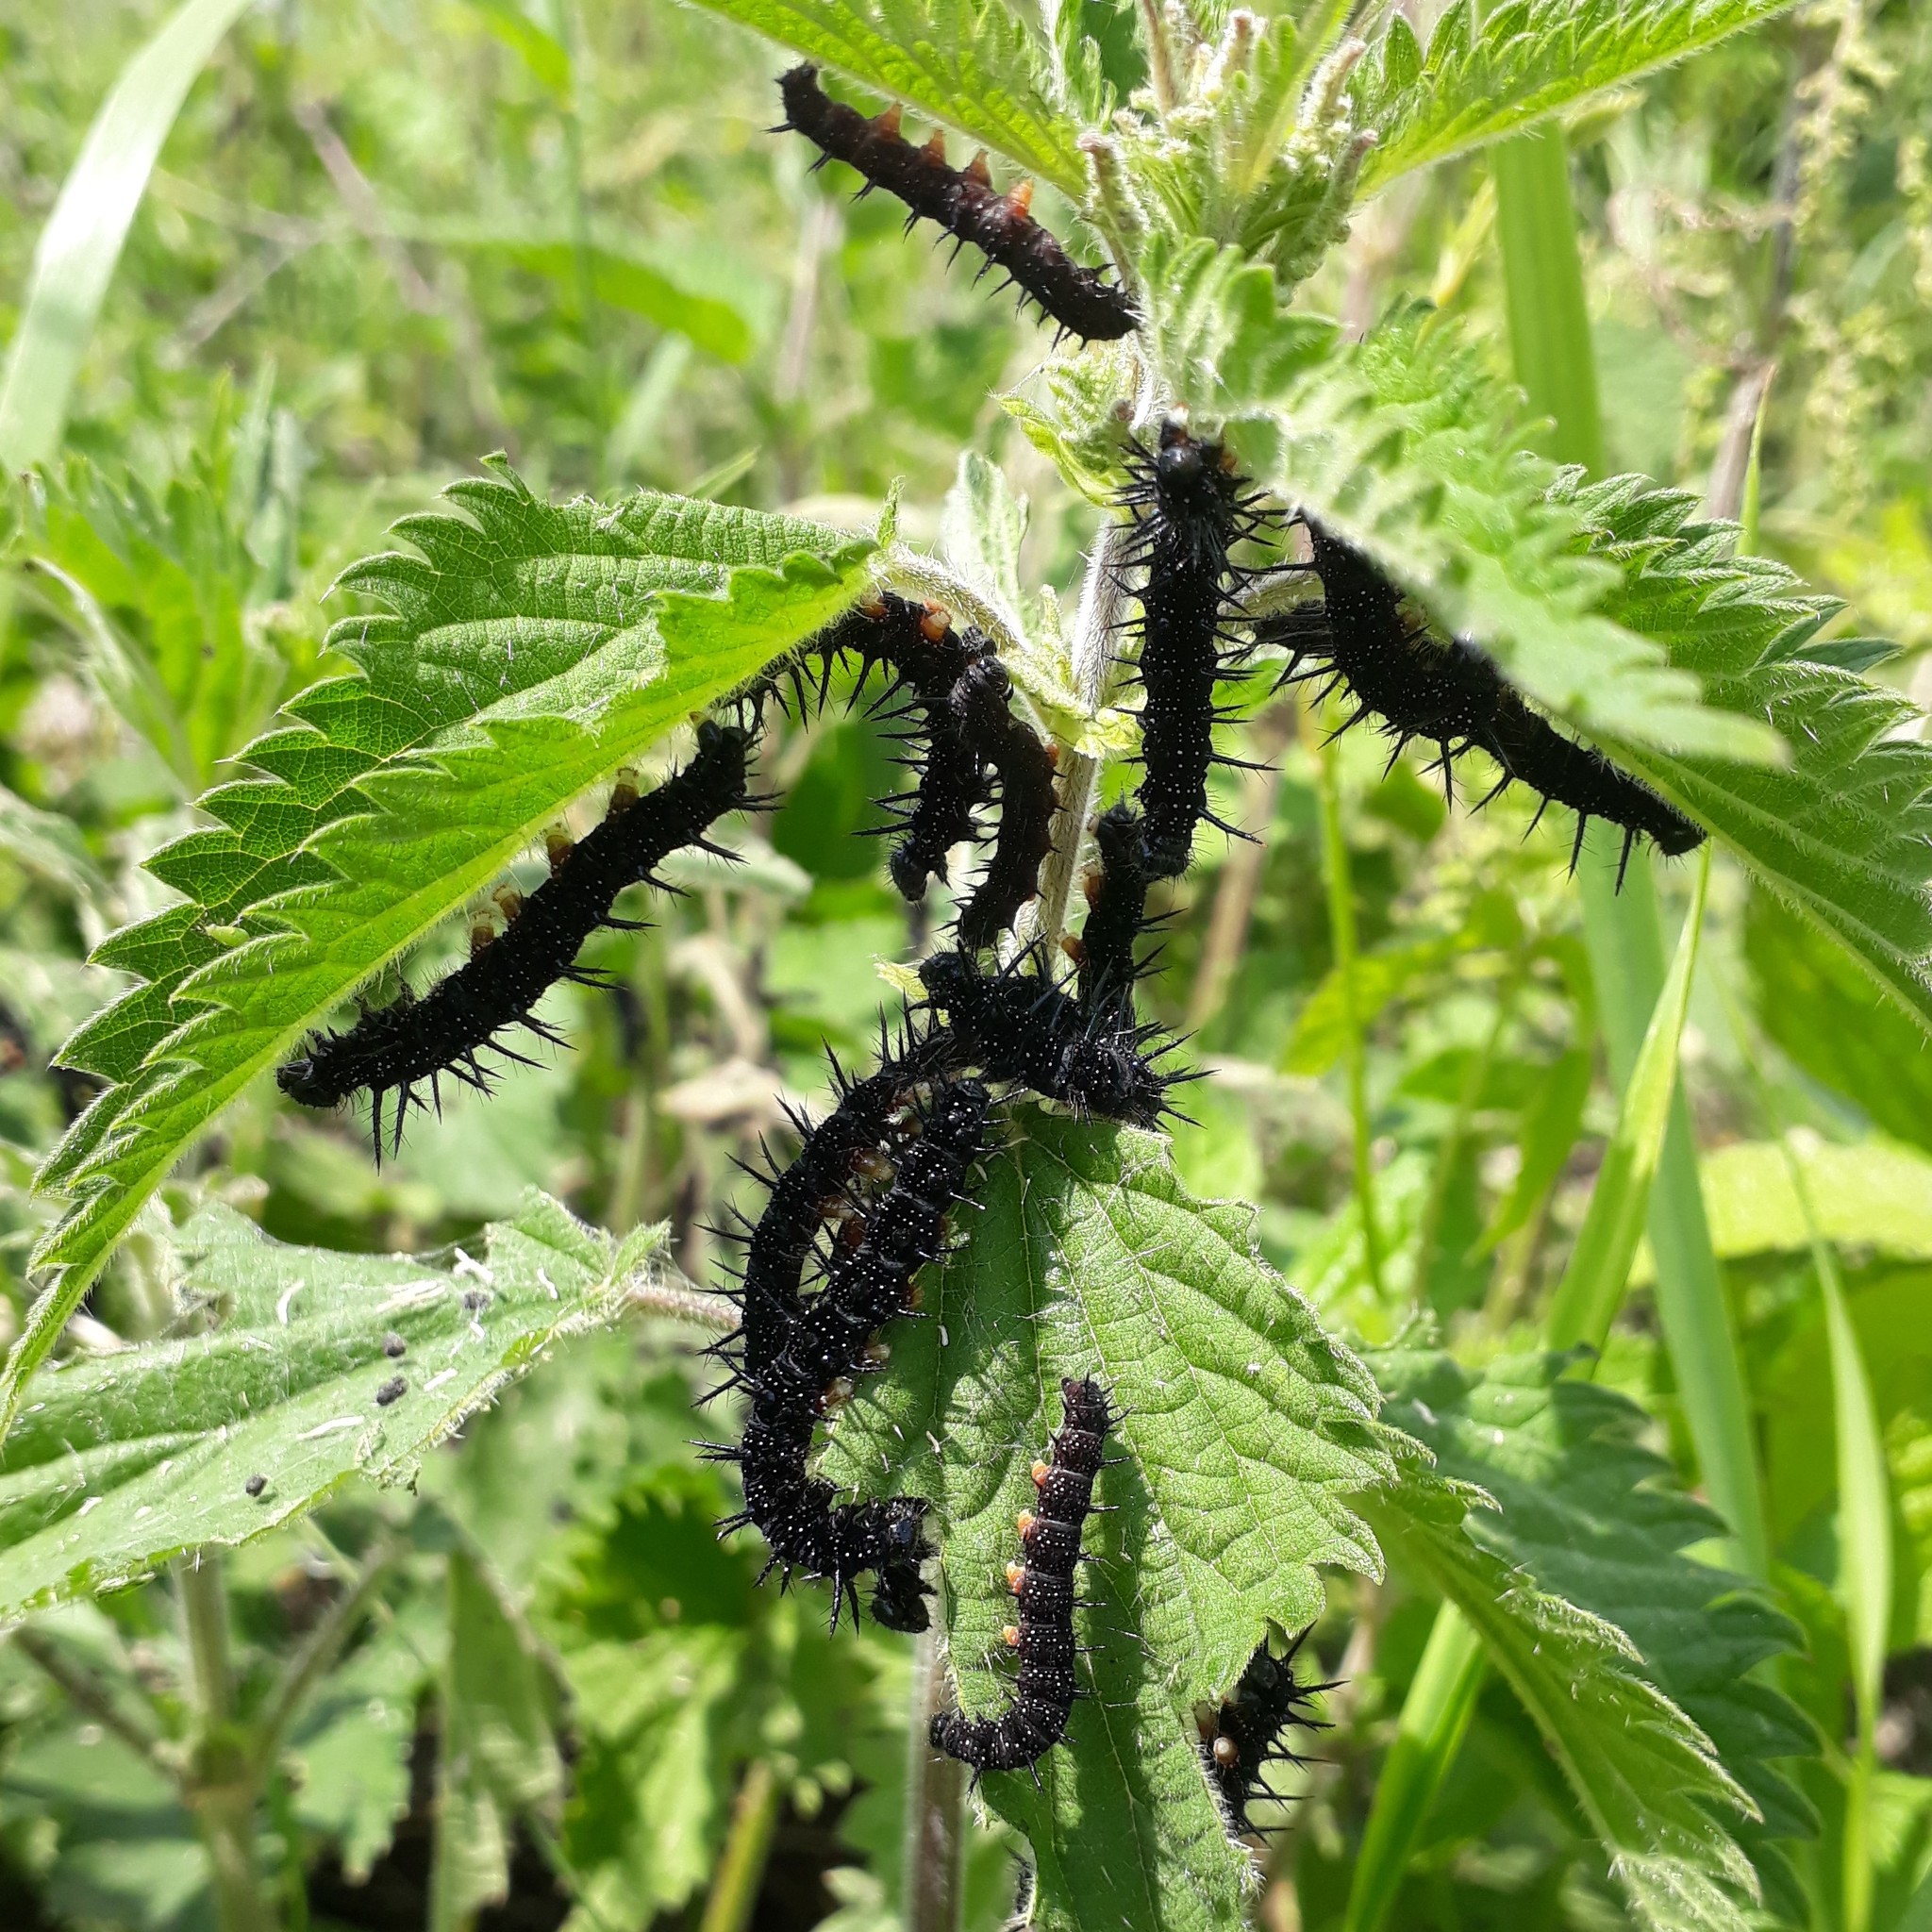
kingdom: Animalia
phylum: Arthropoda
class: Insecta
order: Lepidoptera
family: Nymphalidae
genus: Aglais
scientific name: Aglais io
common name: Peacock
